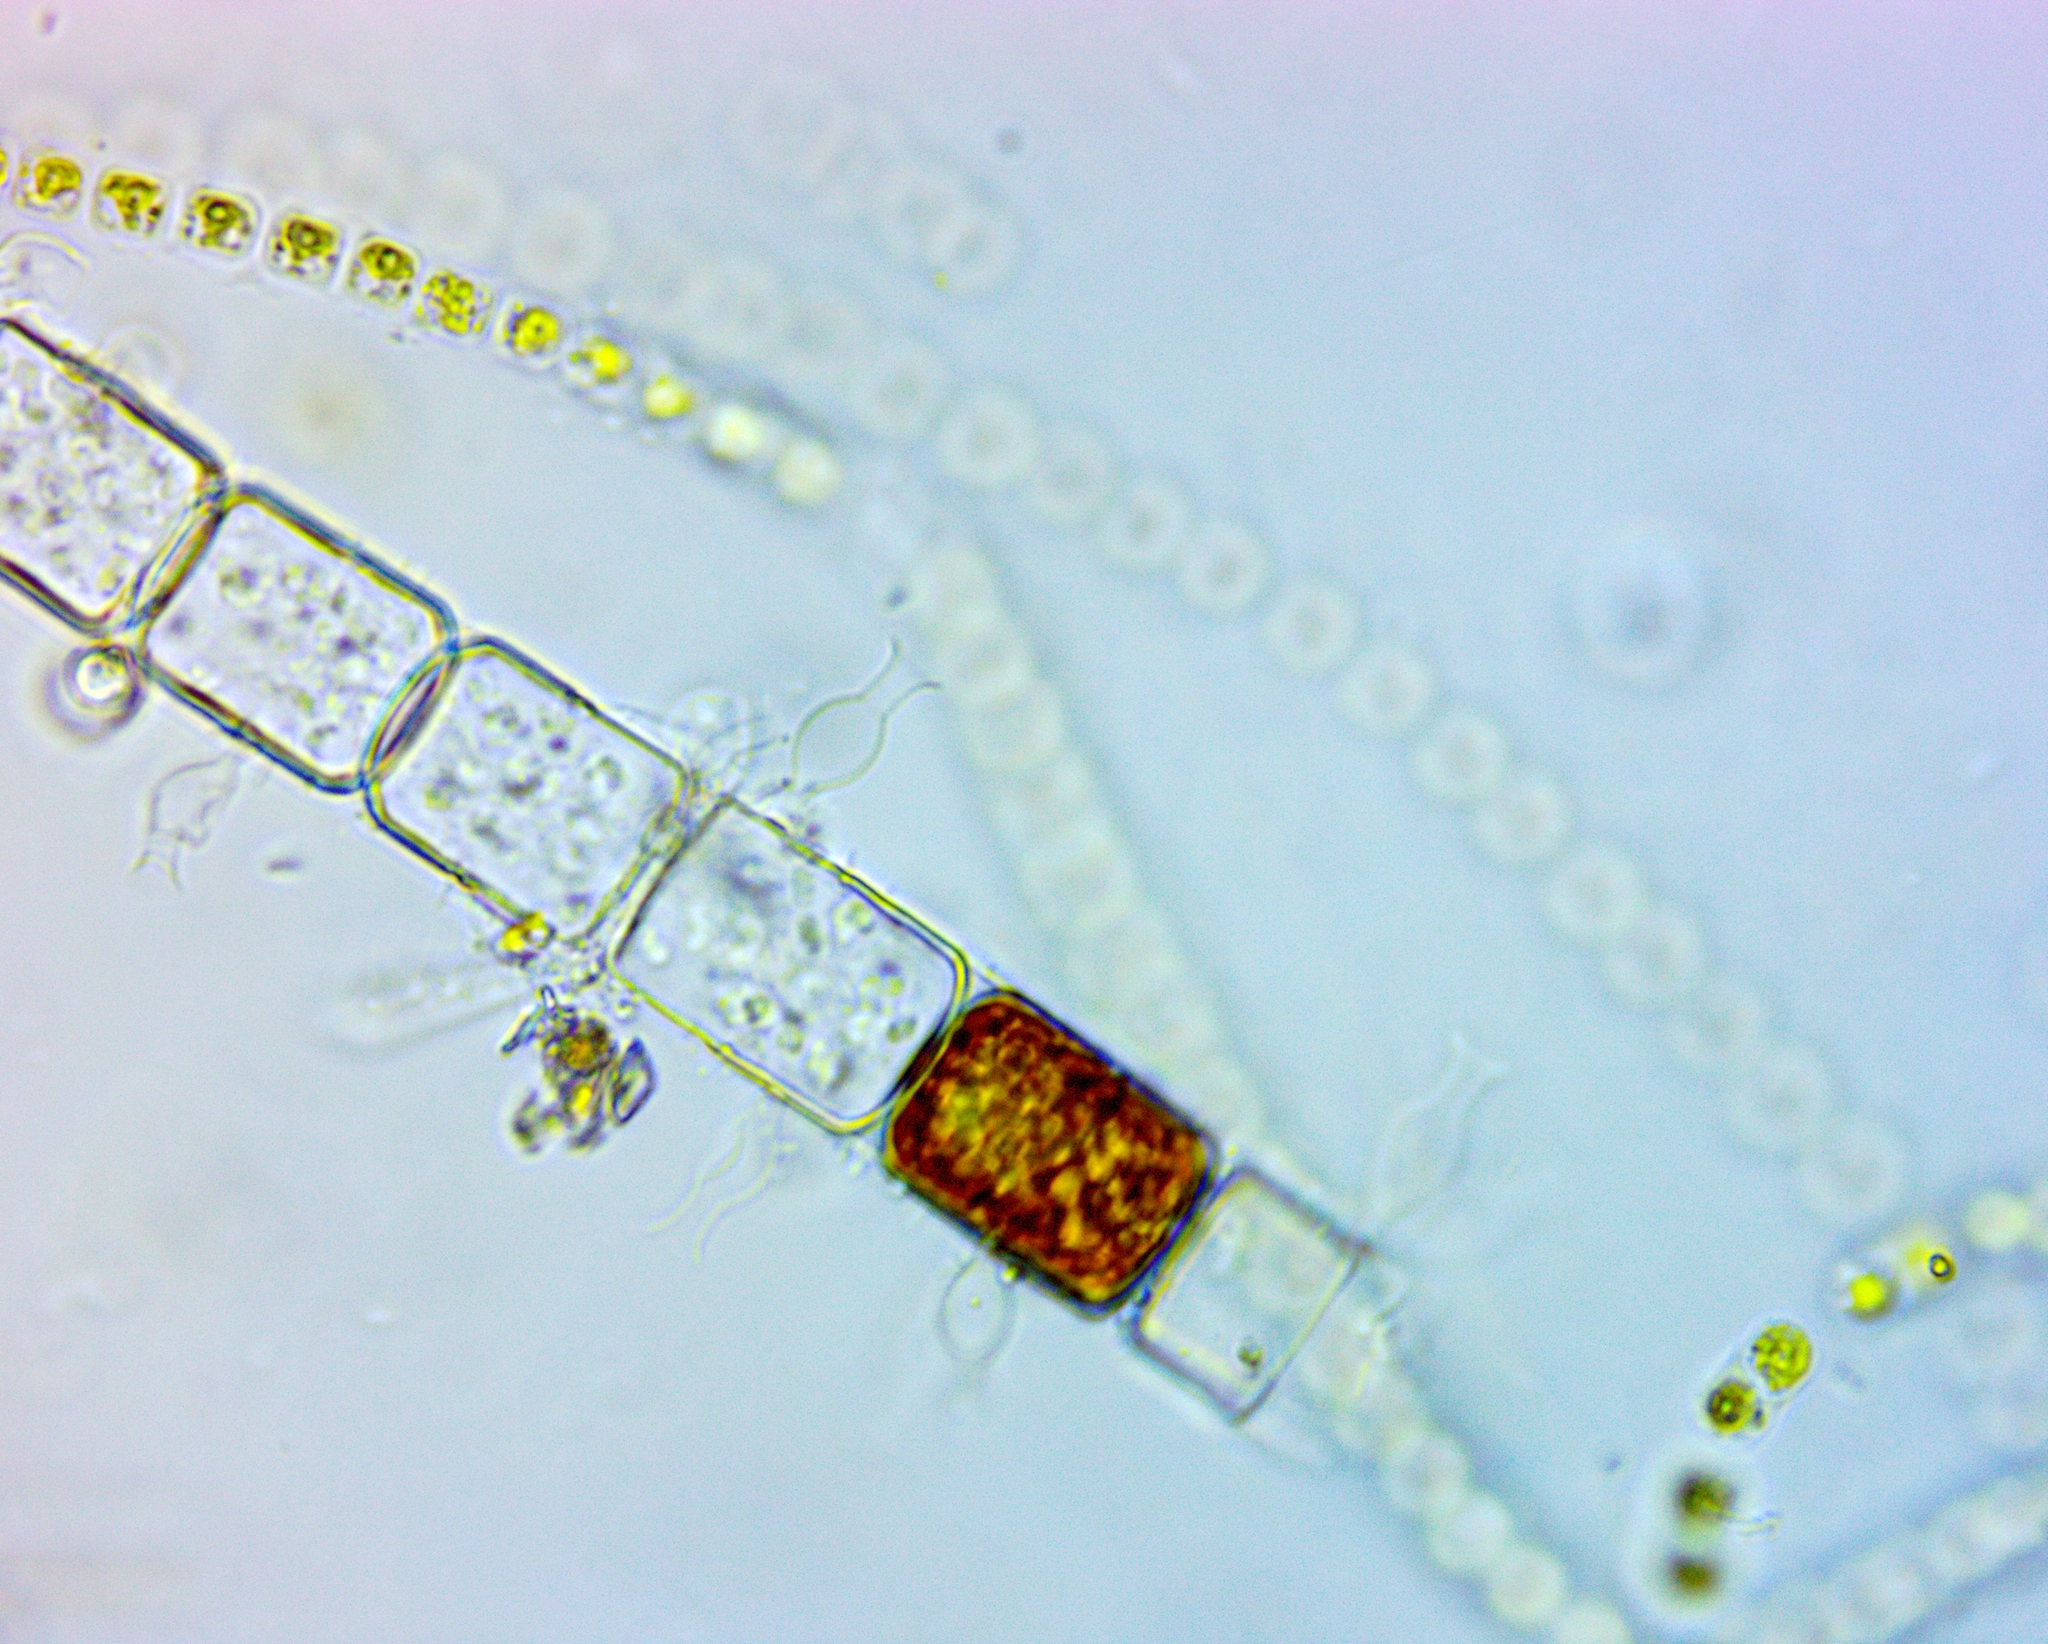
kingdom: Chromista
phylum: Ochrophyta
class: Bacillariophyceae
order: Melosirales
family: Melosiraceae
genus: Melosira
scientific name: Melosira varians
